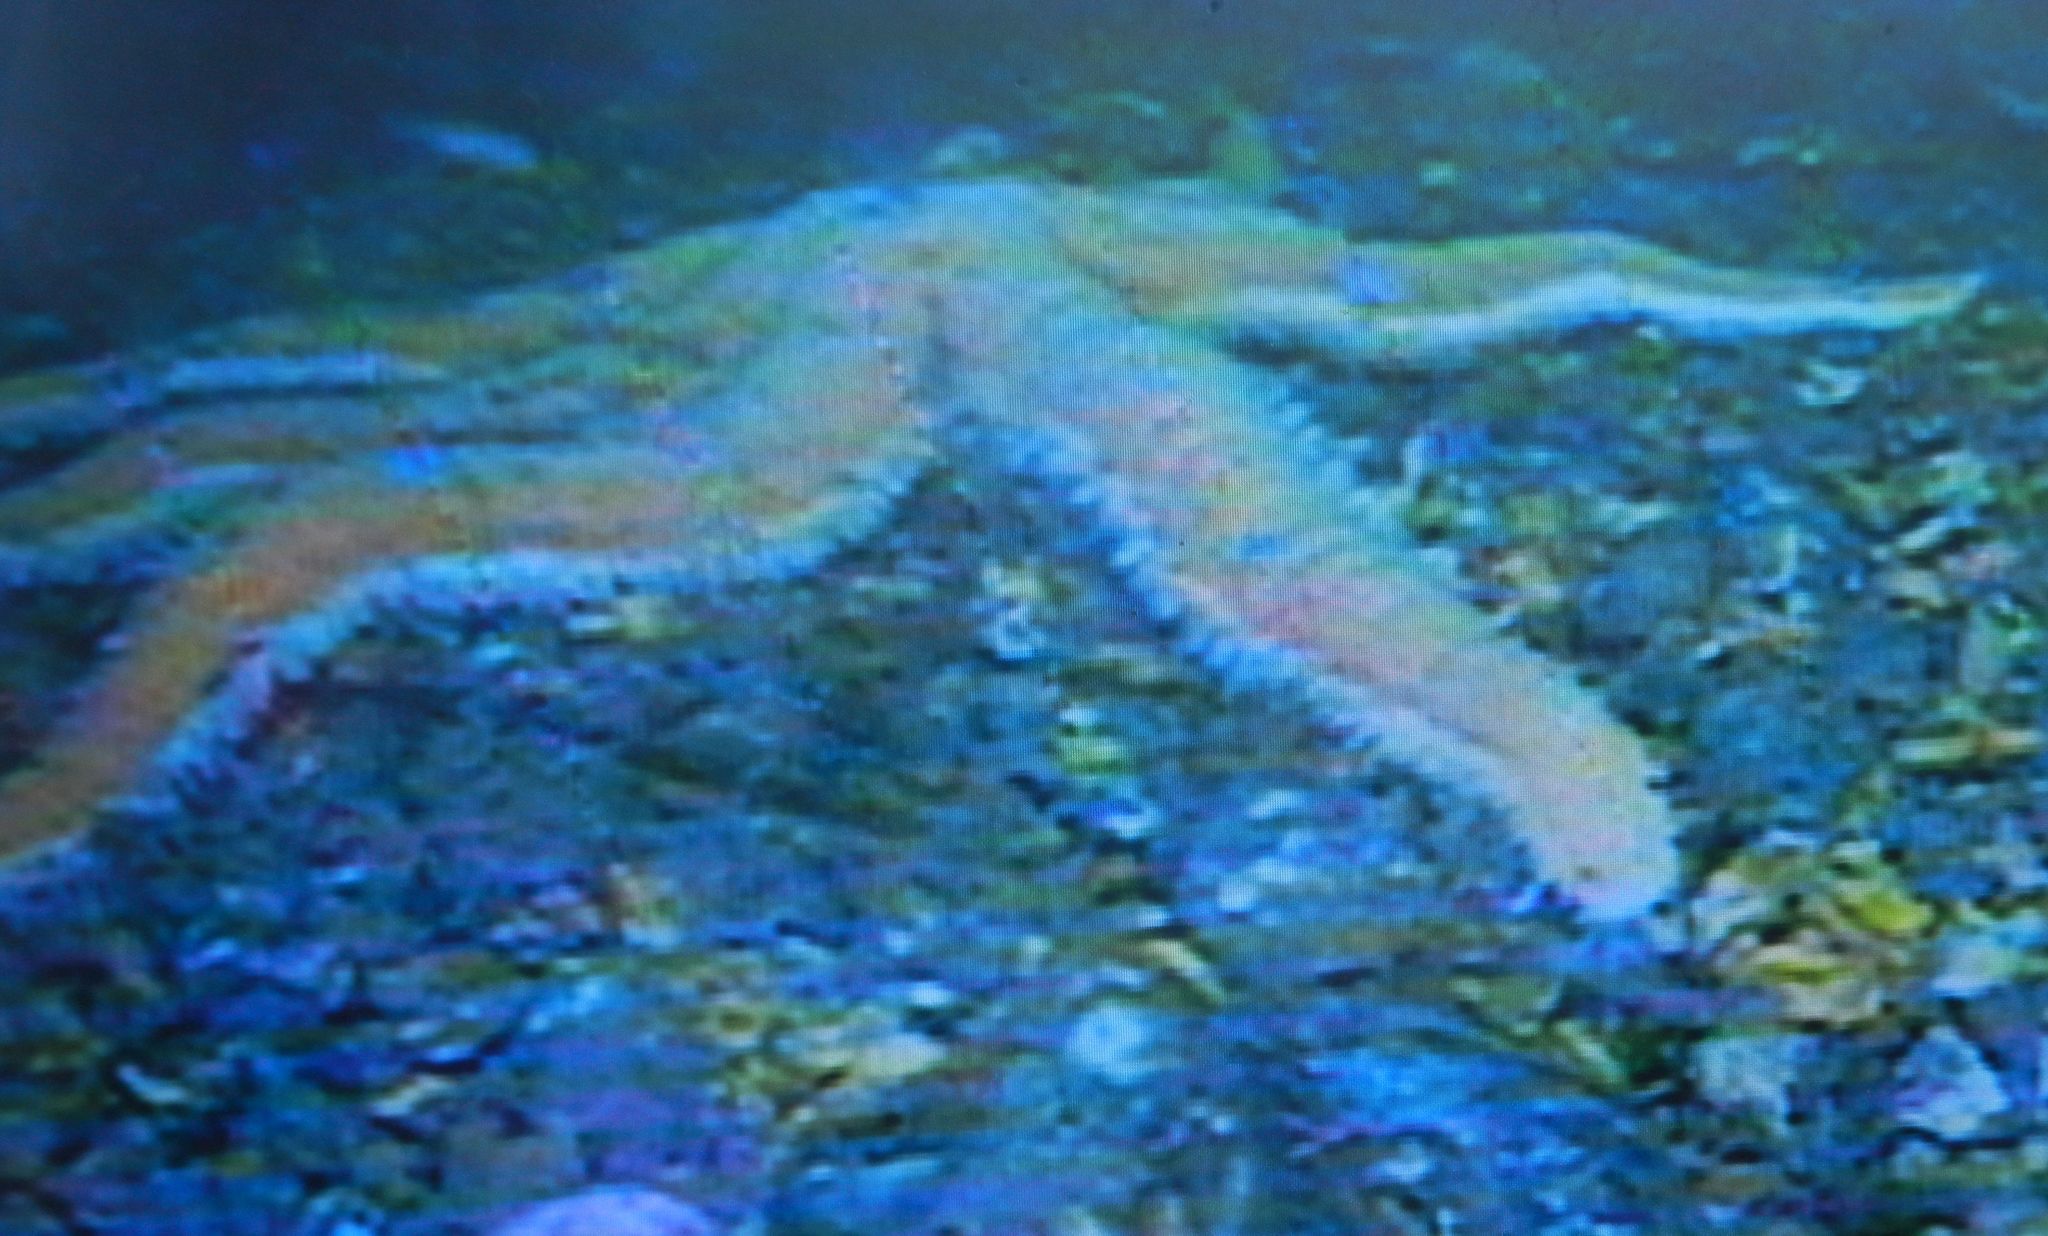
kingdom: Animalia
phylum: Echinodermata
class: Asteroidea
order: Paxillosida
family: Luidiidae
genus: Luidia
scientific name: Luidia ciliaris
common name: Seven-armed starfish
